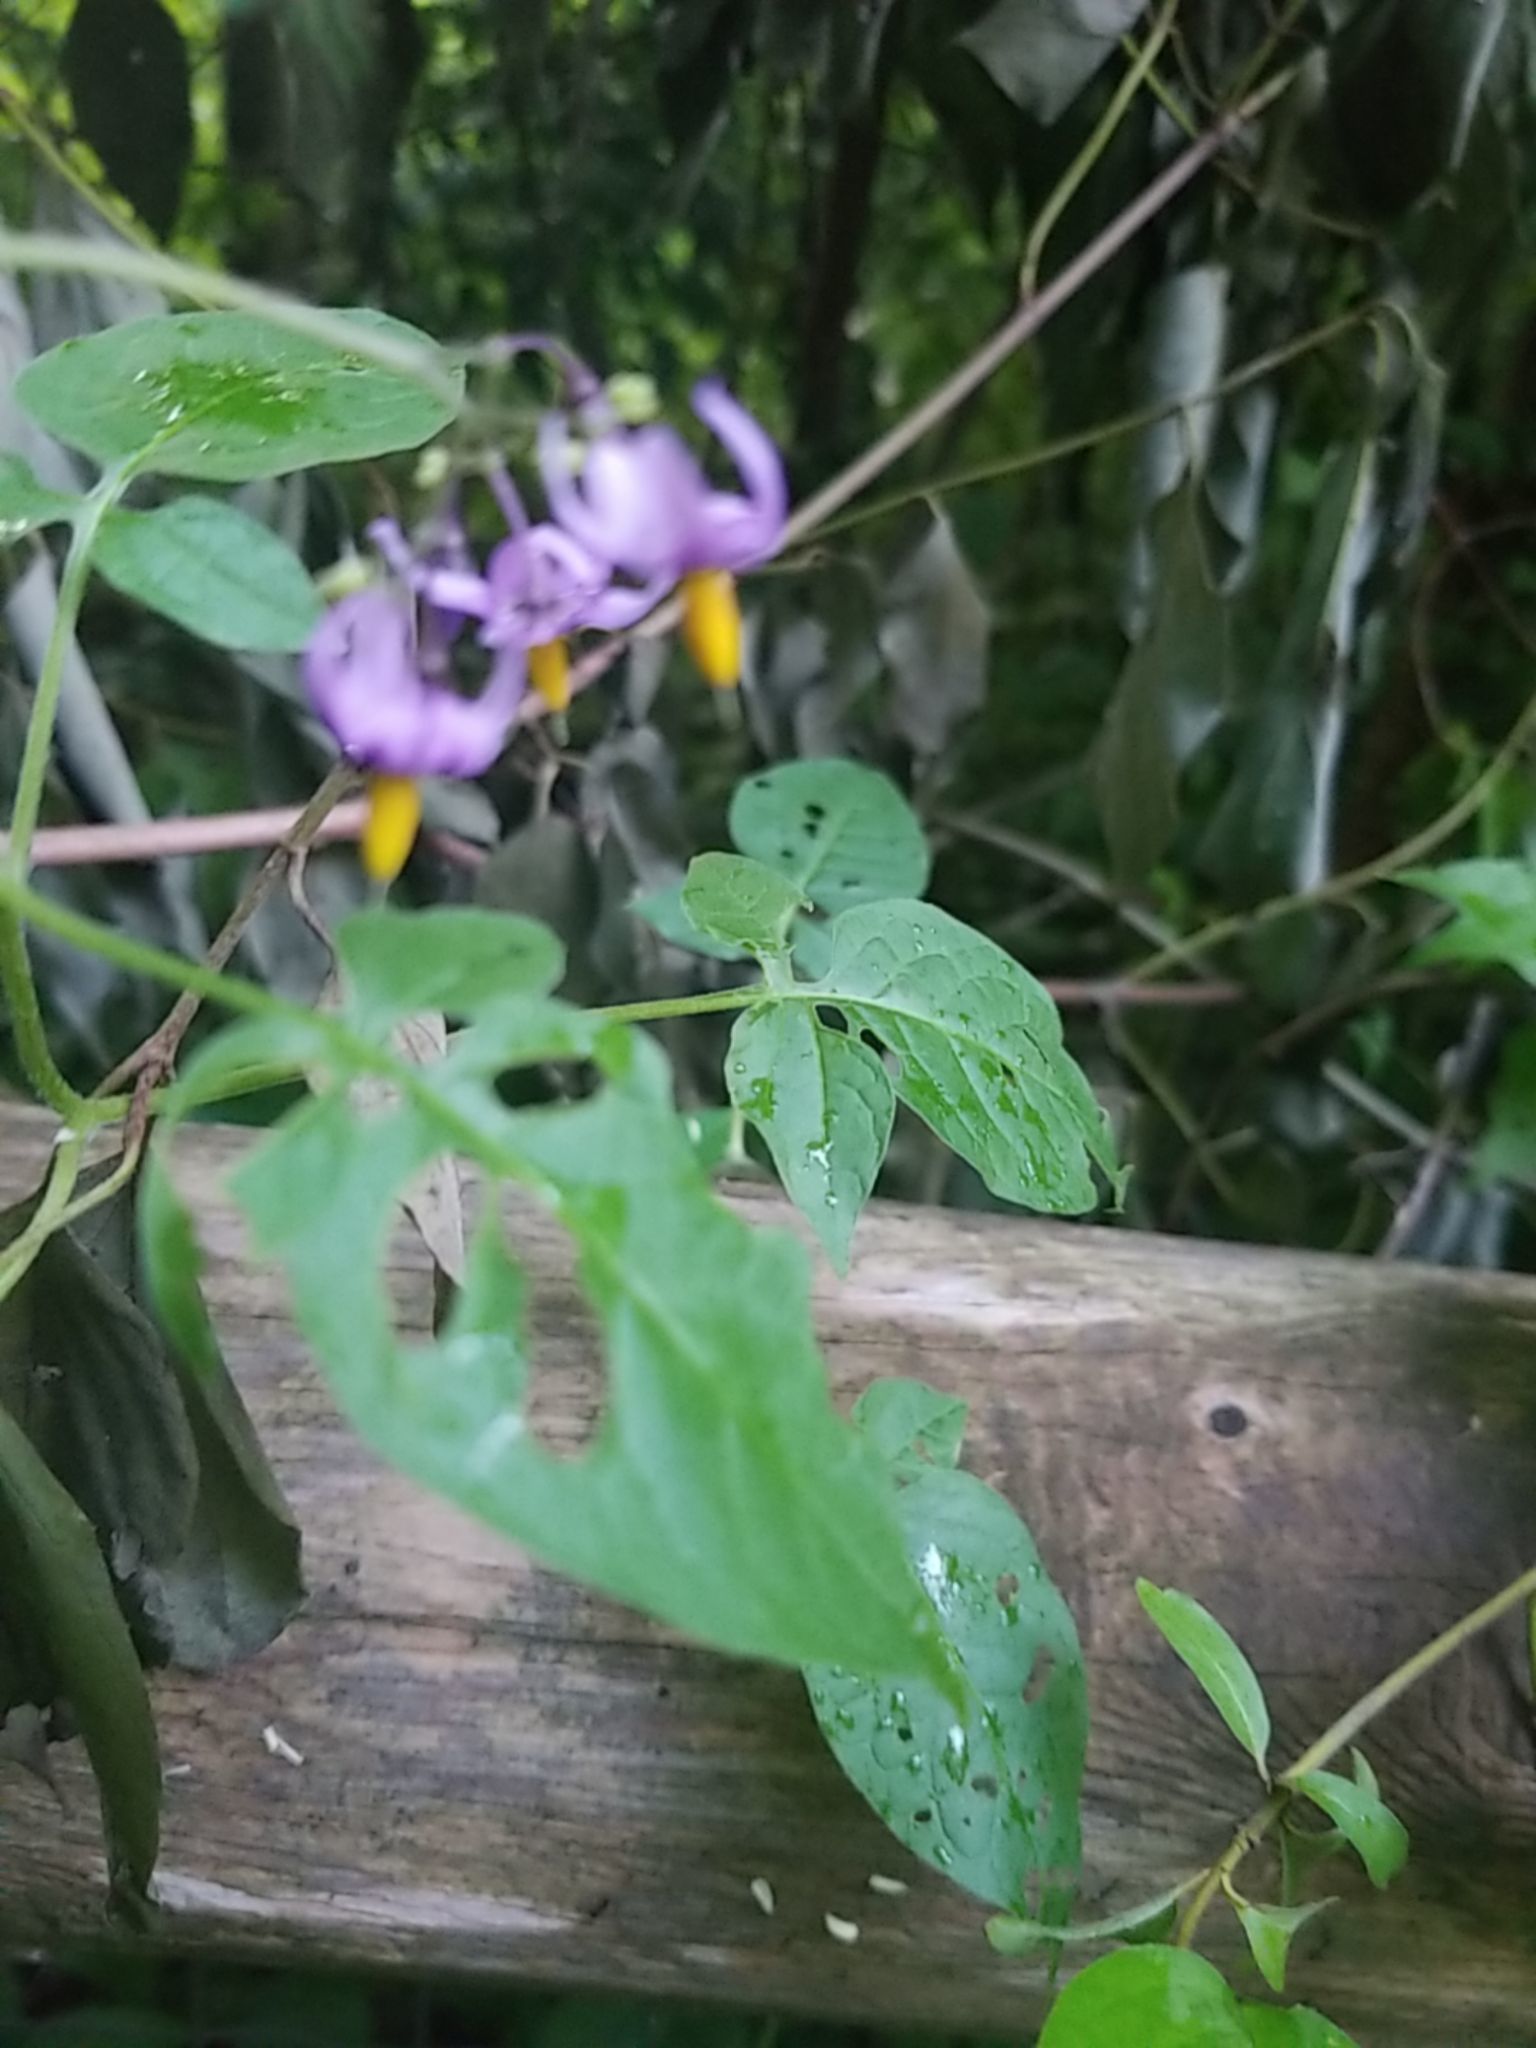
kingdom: Plantae
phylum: Tracheophyta
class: Magnoliopsida
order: Solanales
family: Solanaceae
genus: Solanum
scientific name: Solanum dulcamara
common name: Climbing nightshade
